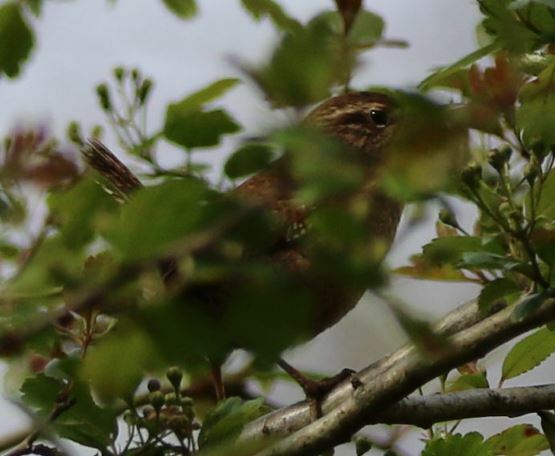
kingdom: Animalia
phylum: Chordata
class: Aves
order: Passeriformes
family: Troglodytidae
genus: Troglodytes
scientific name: Troglodytes troglodytes
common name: Eurasian wren
